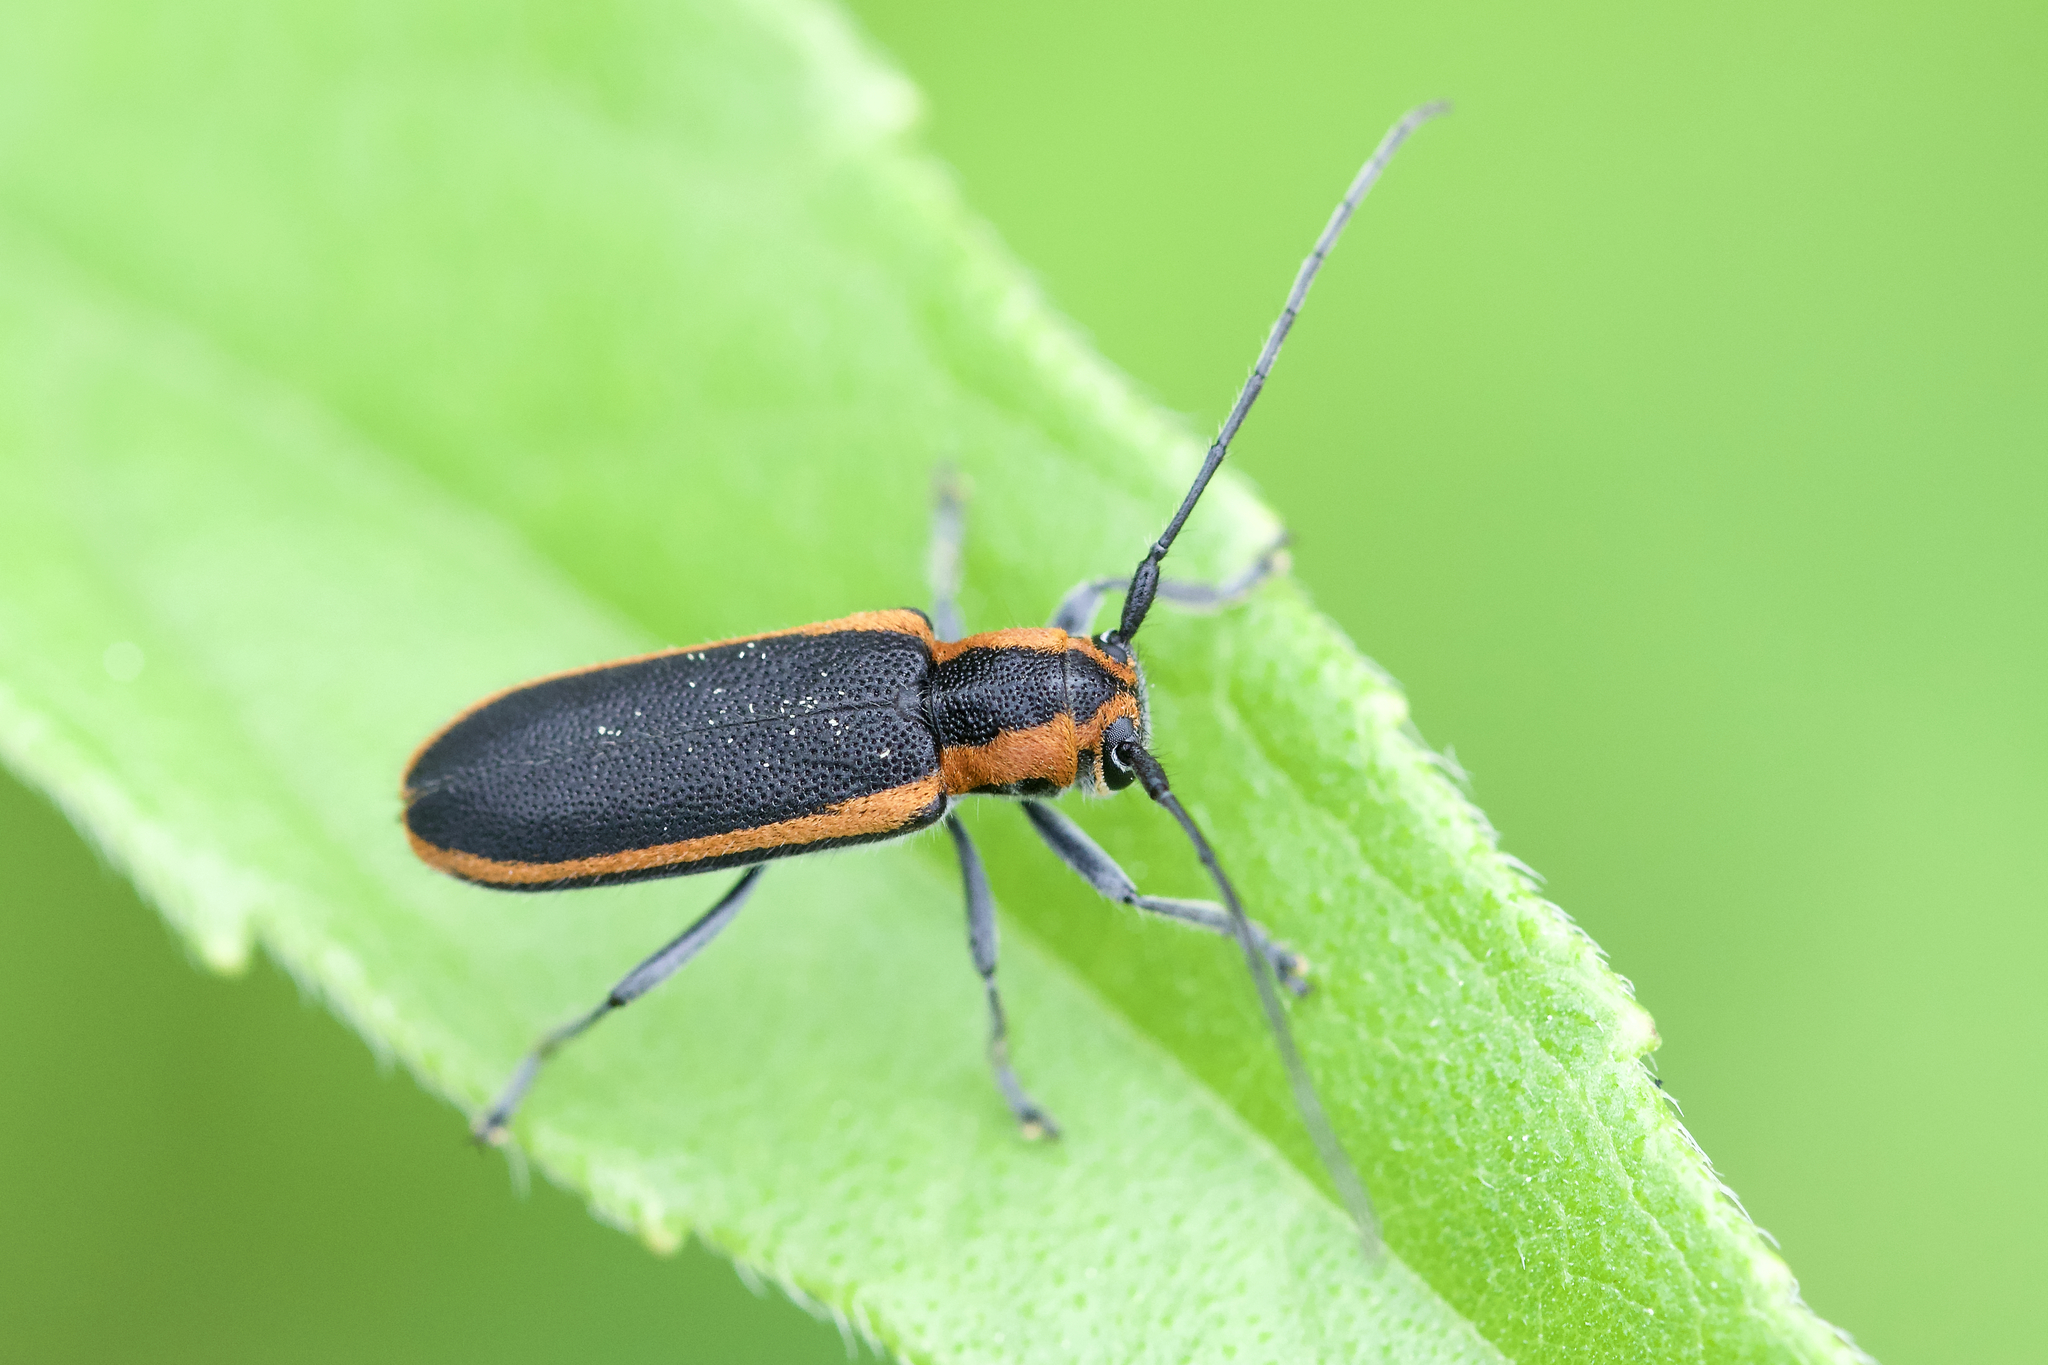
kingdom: Animalia
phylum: Arthropoda
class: Insecta
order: Coleoptera
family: Cerambycidae
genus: Saperda
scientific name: Saperda lateralis
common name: Red-edged saperda
